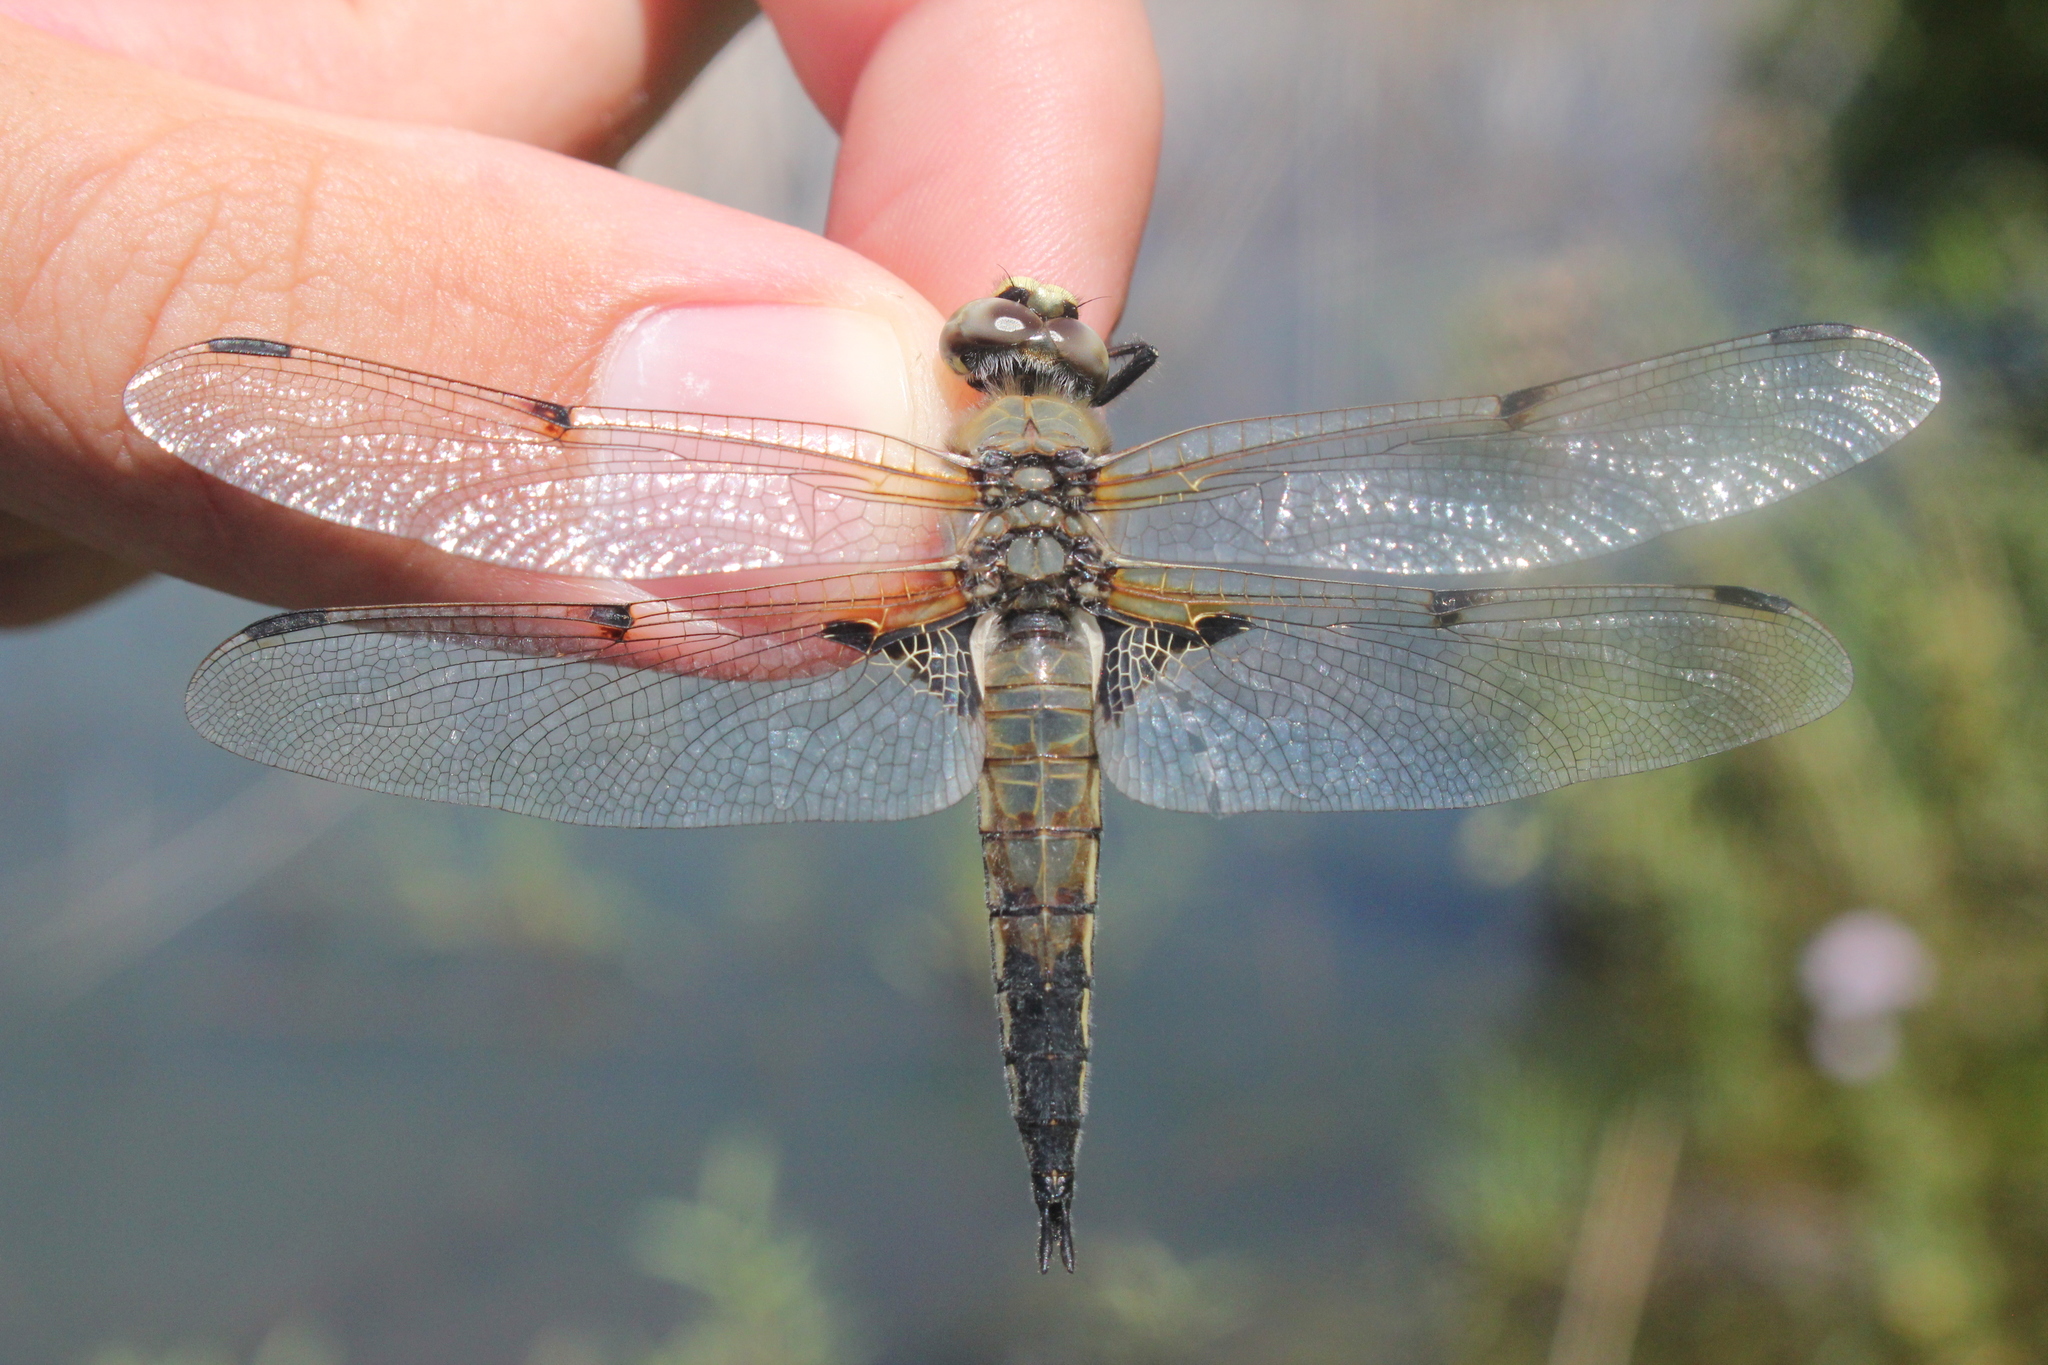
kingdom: Animalia
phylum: Arthropoda
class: Insecta
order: Odonata
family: Libellulidae
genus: Libellula
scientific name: Libellula quadrimaculata
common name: Four-spotted chaser
